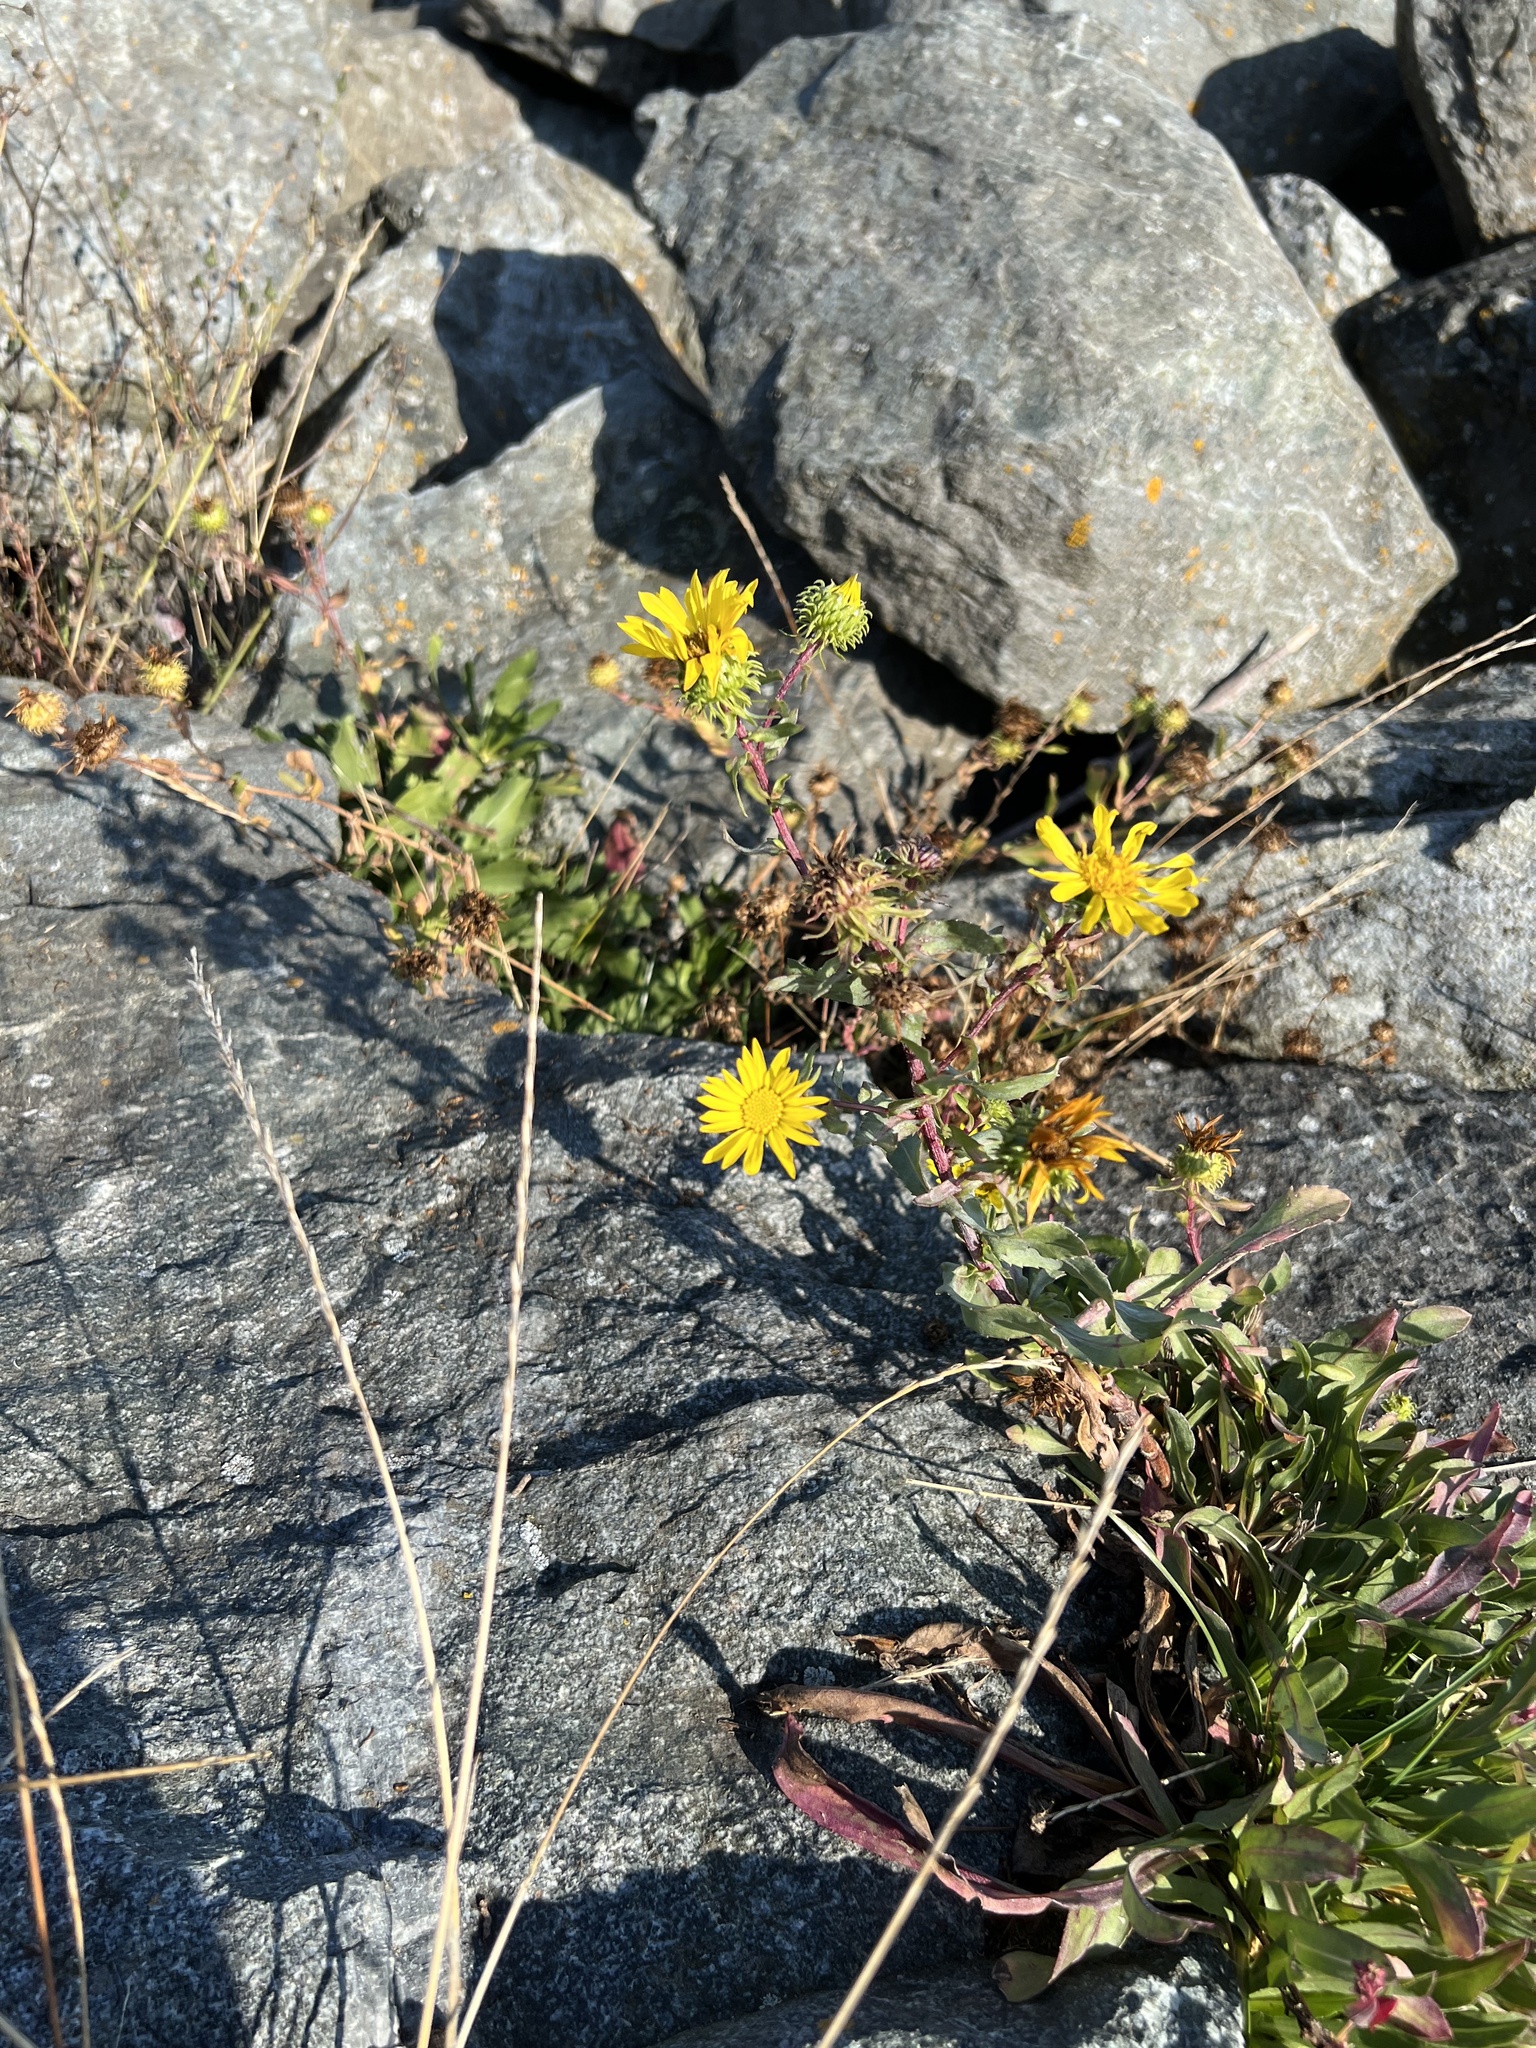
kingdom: Plantae
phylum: Tracheophyta
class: Magnoliopsida
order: Asterales
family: Asteraceae
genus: Grindelia
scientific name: Grindelia hirsutula
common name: Hairy gumweed
